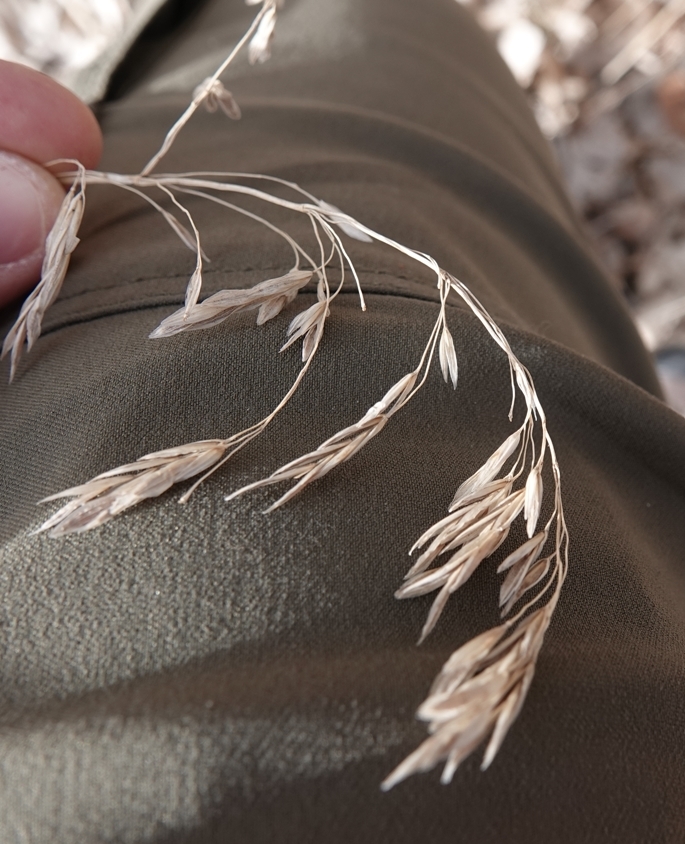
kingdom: Plantae
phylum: Tracheophyta
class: Liliopsida
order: Poales
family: Poaceae
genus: Bromus
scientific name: Bromus inermis
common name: Smooth brome
